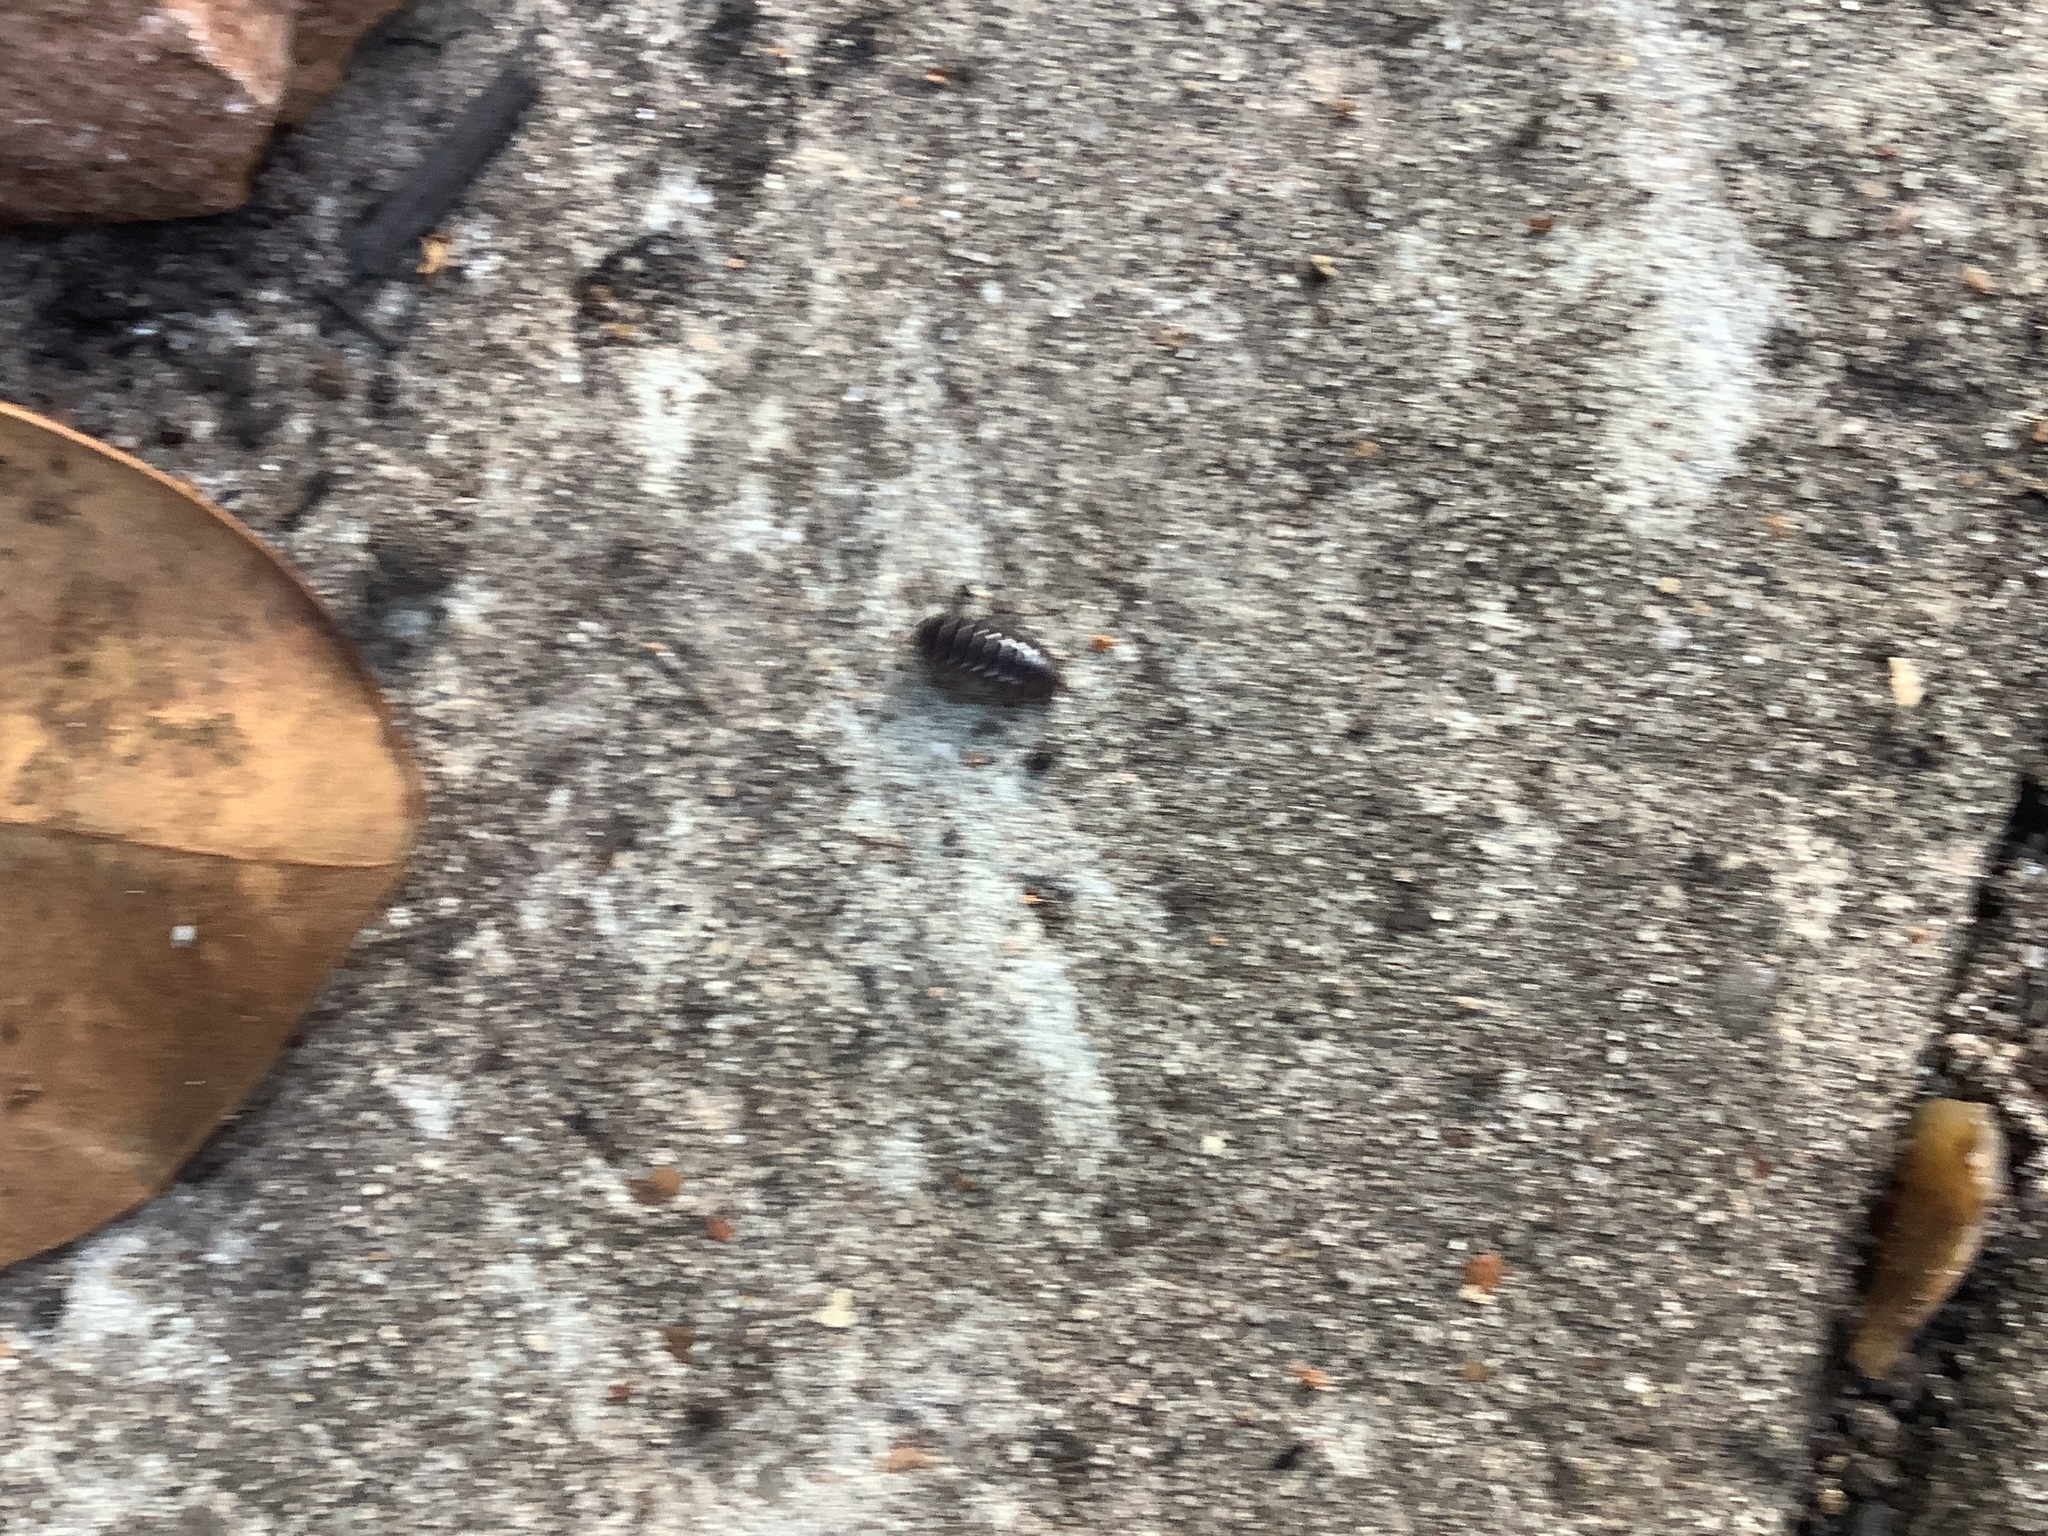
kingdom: Animalia
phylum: Arthropoda
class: Malacostraca
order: Isopoda
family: Armadillidiidae
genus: Armadillidium
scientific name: Armadillidium vulgare
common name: Common pill woodlouse
